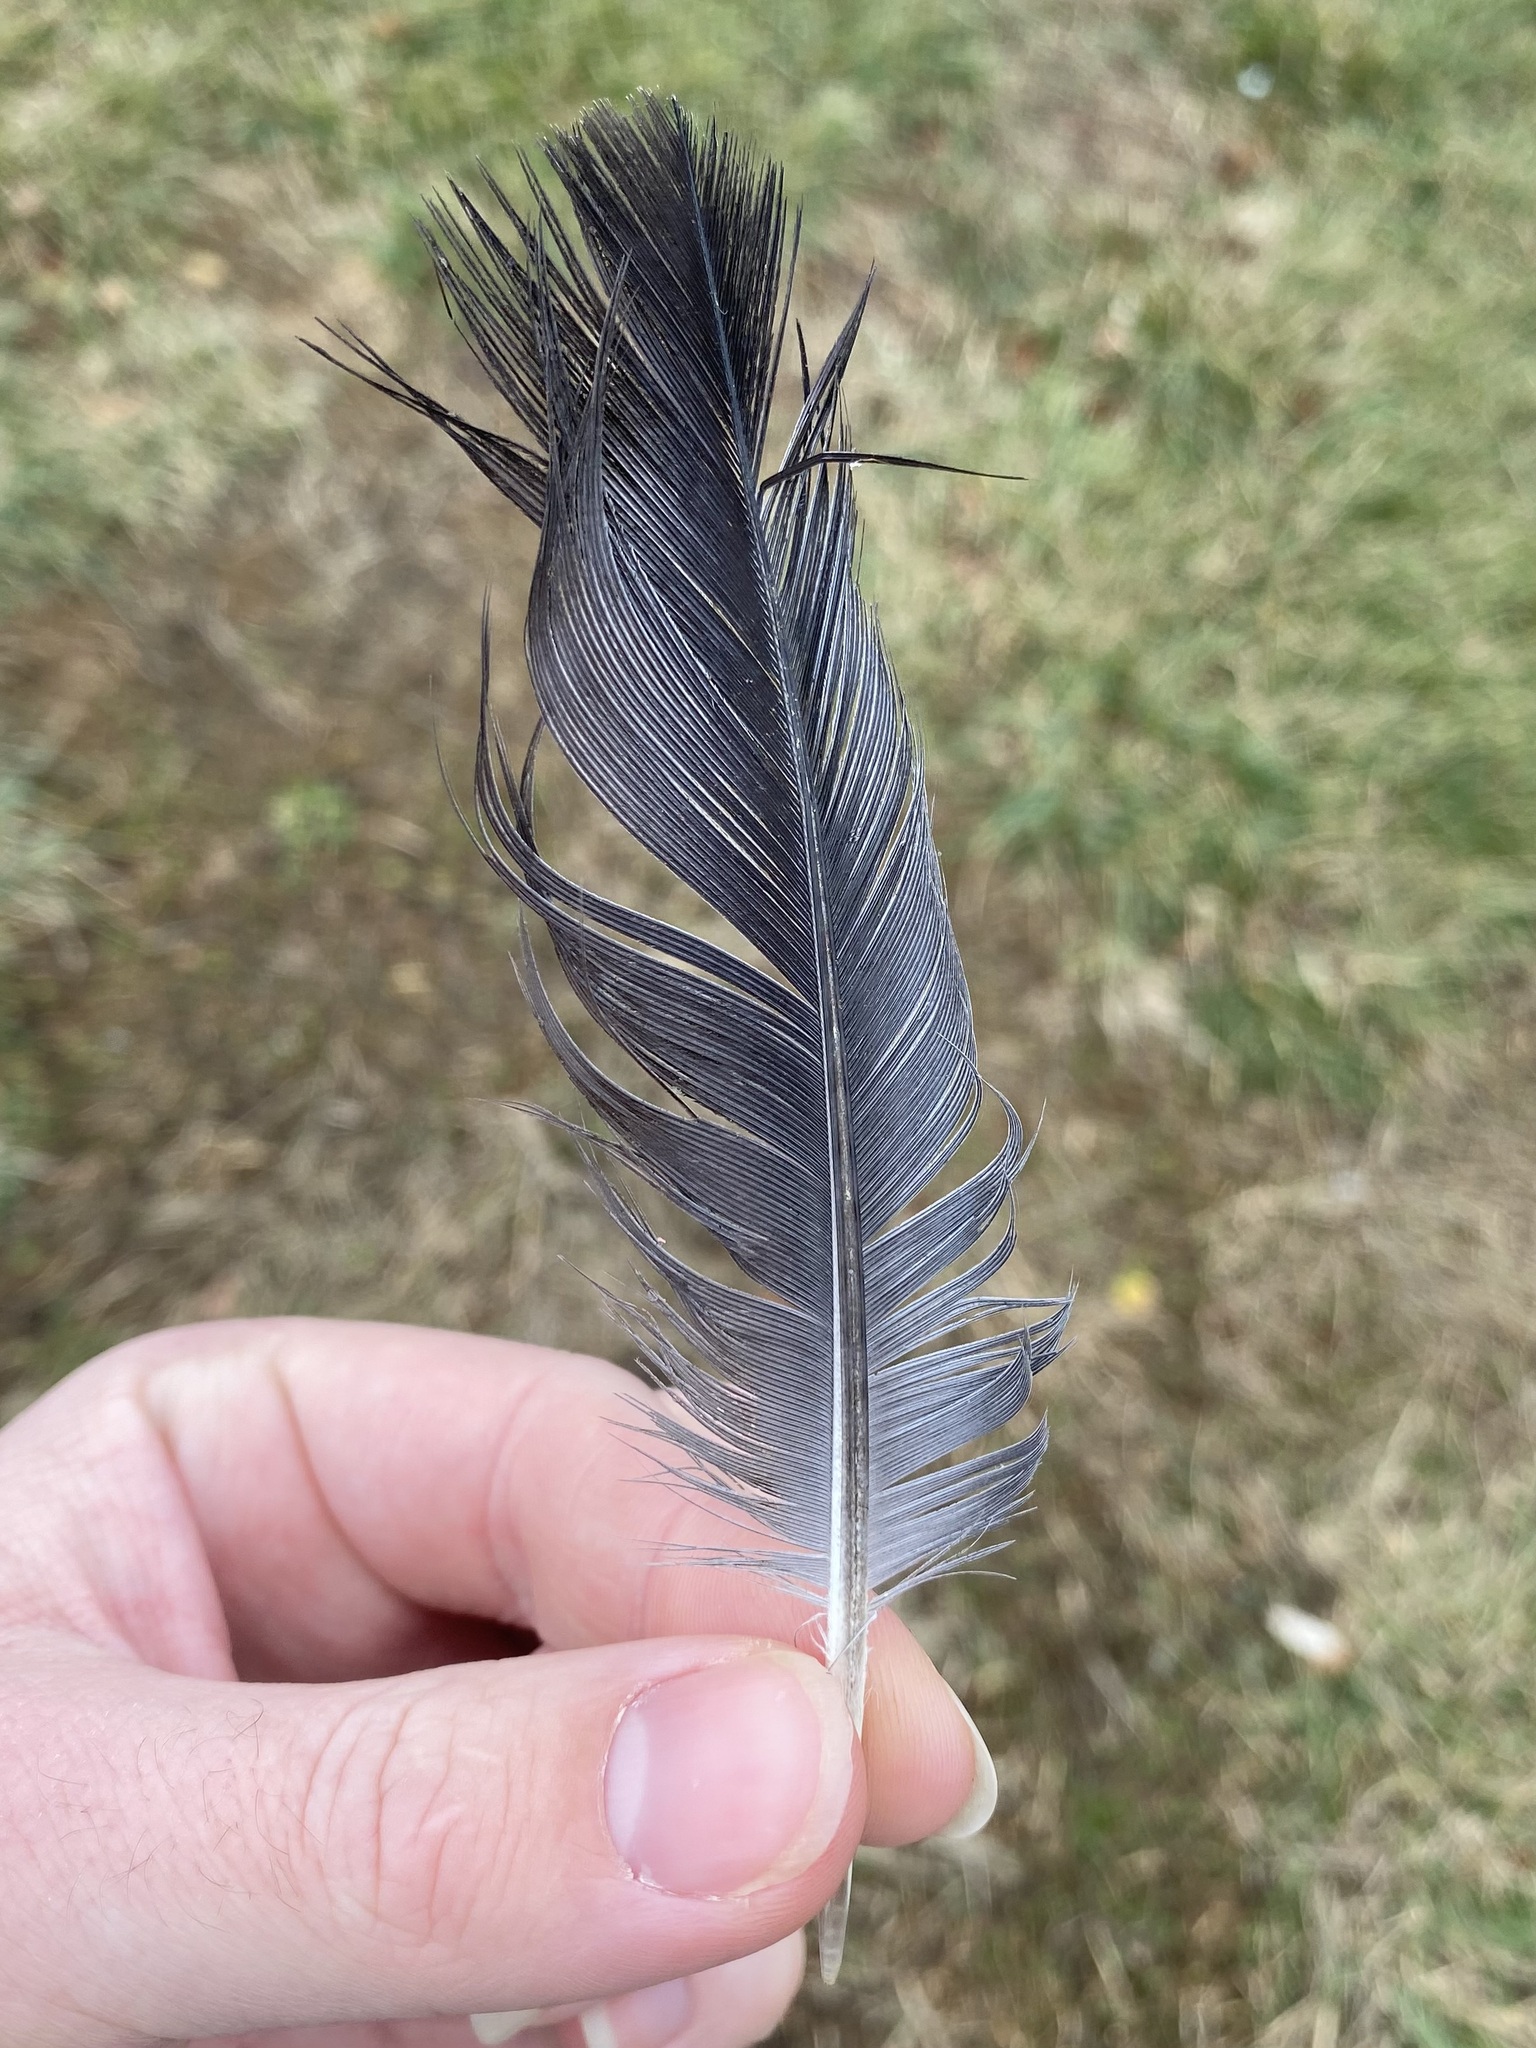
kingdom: Animalia
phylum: Chordata
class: Aves
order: Columbiformes
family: Columbidae
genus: Columba
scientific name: Columba livia
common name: Rock pigeon
